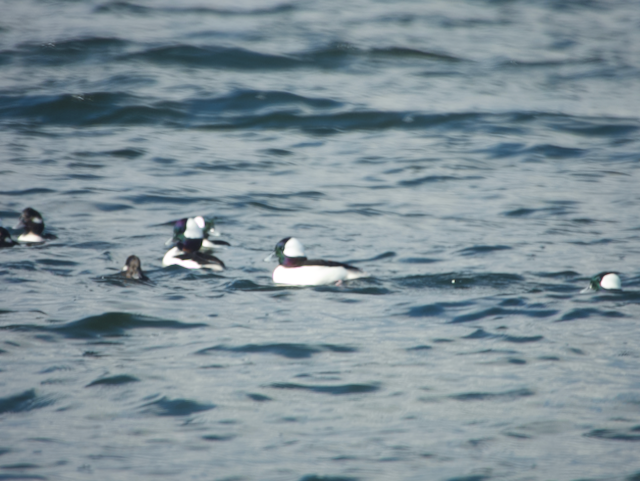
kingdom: Animalia
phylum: Chordata
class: Aves
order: Anseriformes
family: Anatidae
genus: Bucephala
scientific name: Bucephala albeola
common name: Bufflehead
